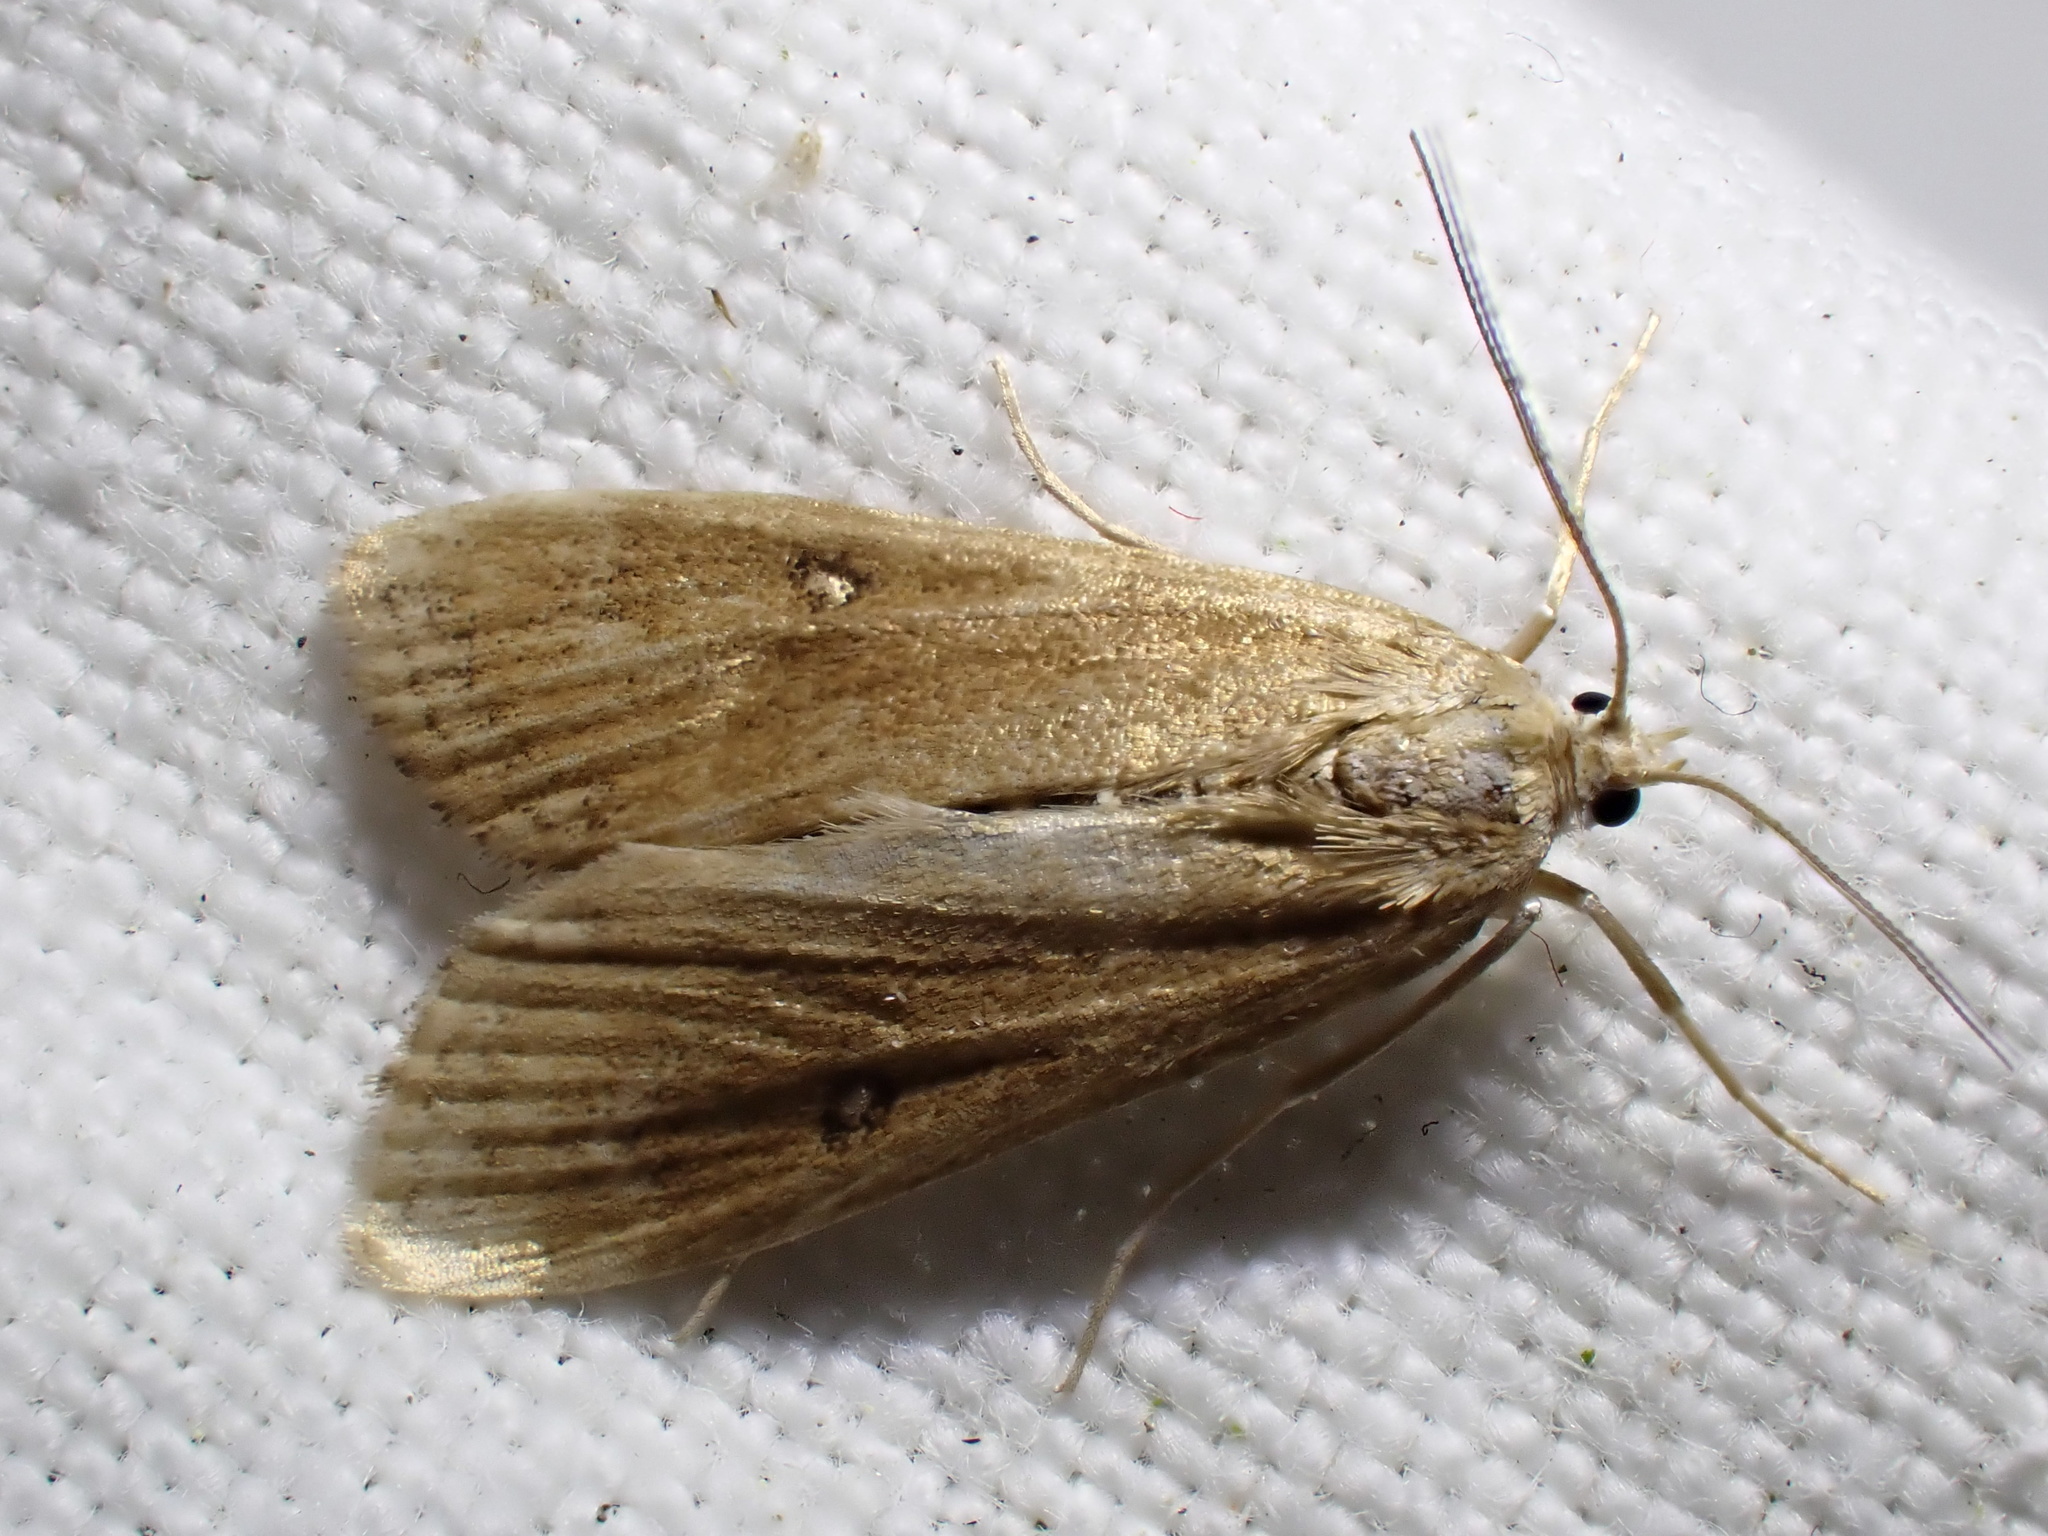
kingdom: Animalia
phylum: Arthropoda
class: Insecta
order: Lepidoptera
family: Crambidae
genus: Parapoynx
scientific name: Parapoynx stratiotata
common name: Ringed china-mark
